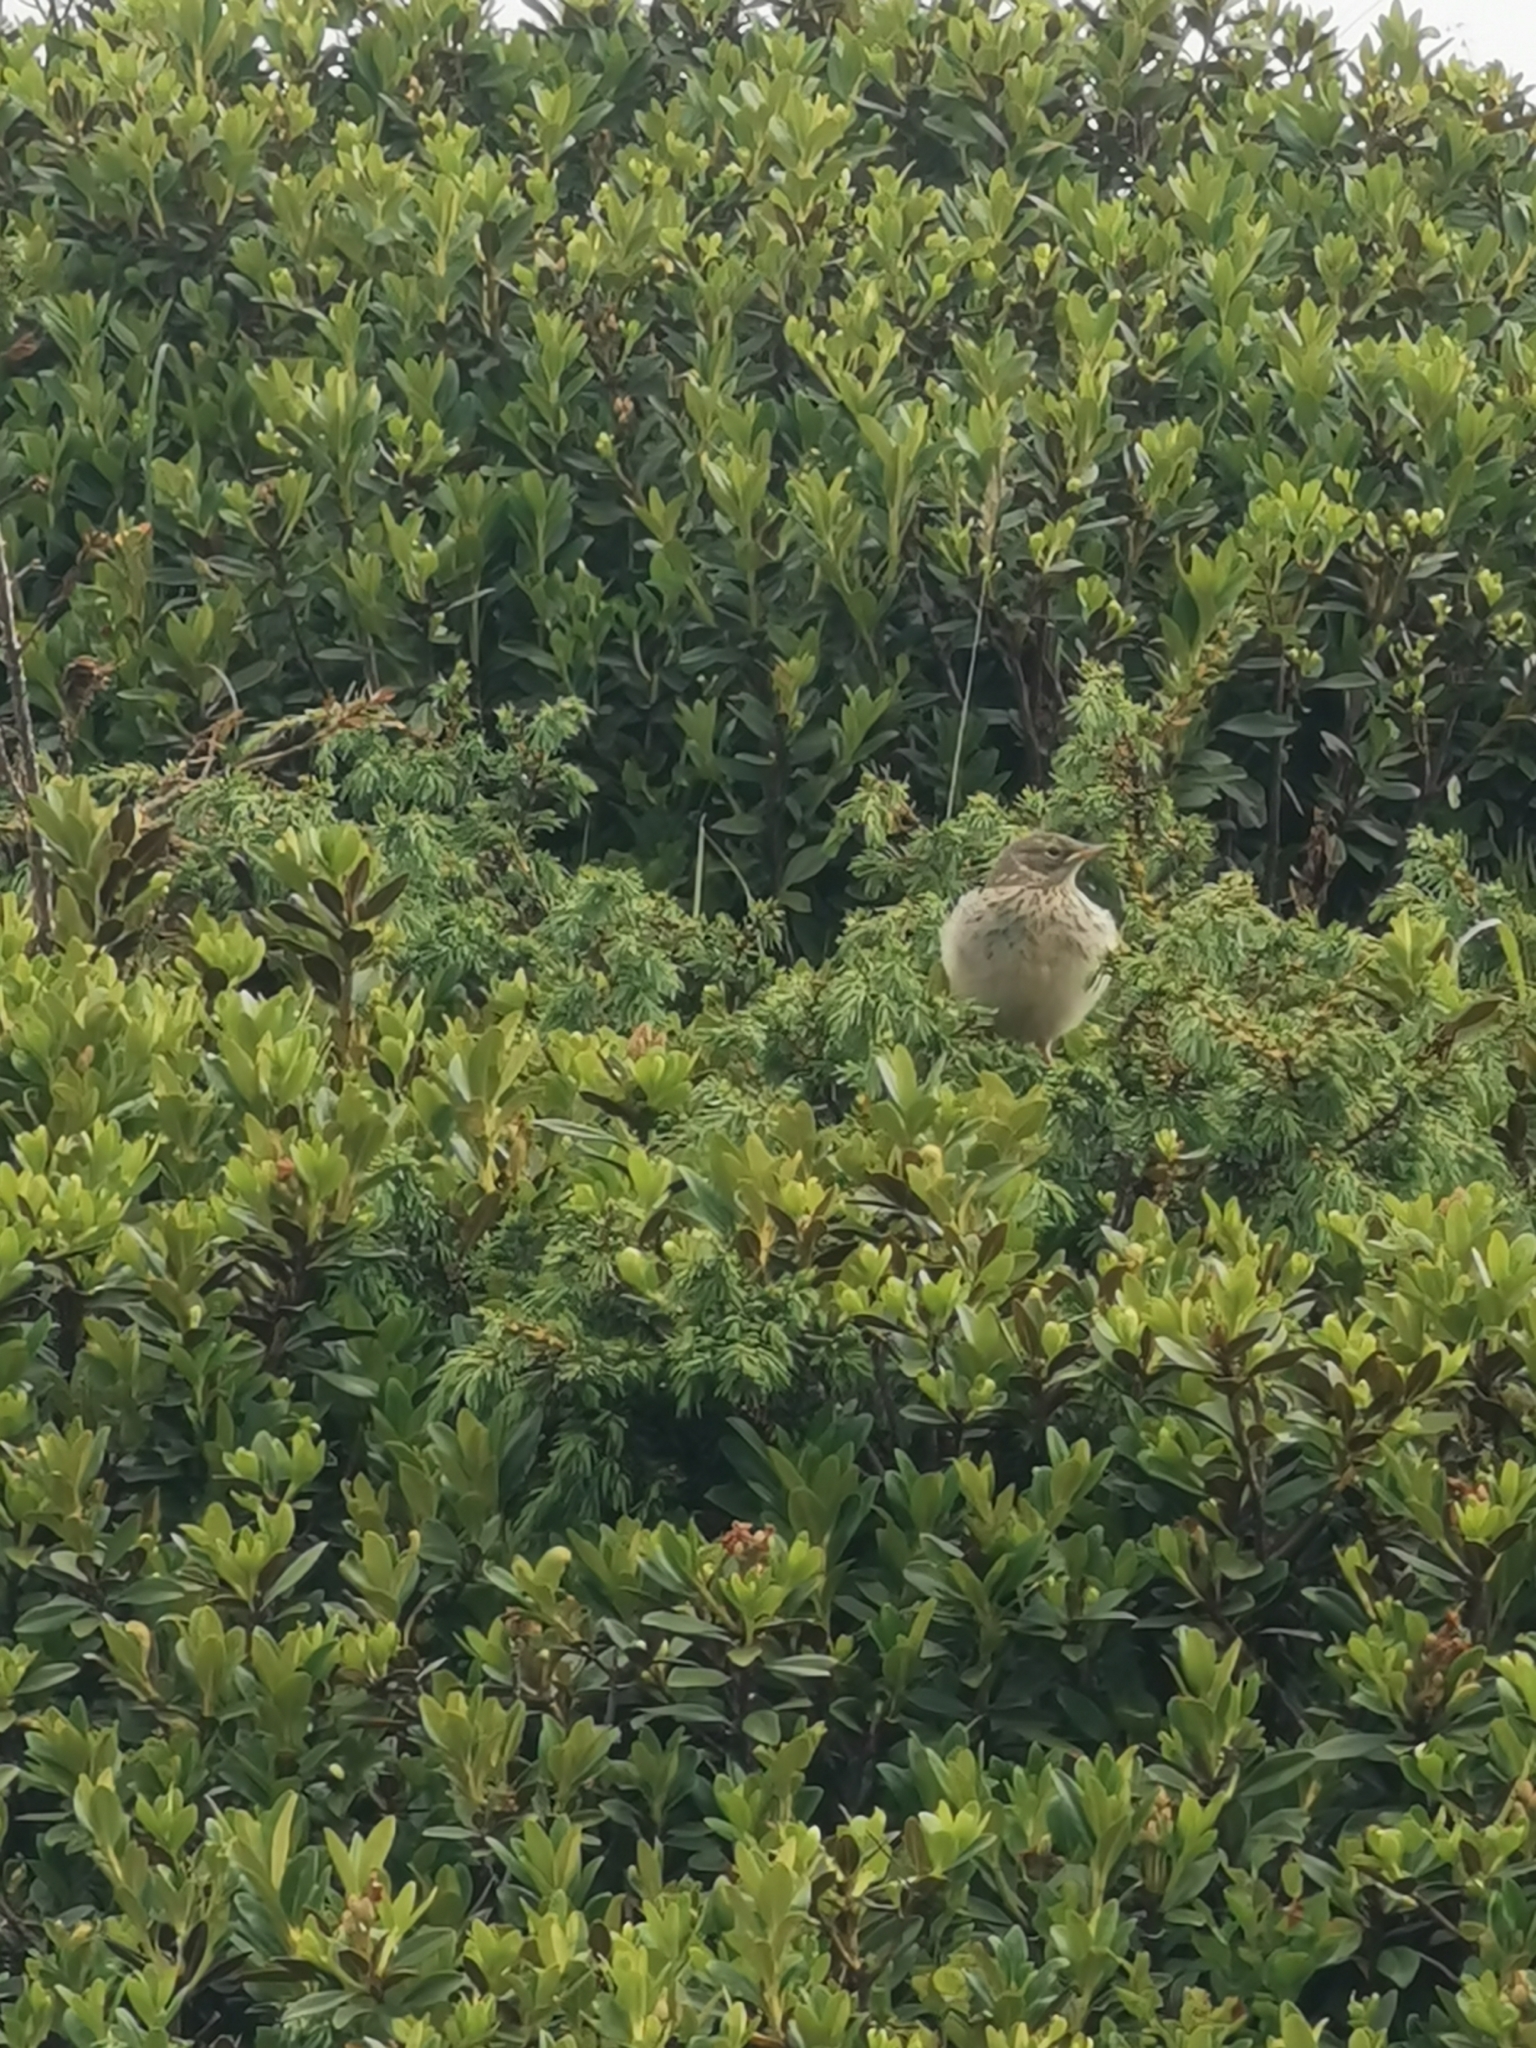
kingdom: Animalia
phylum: Chordata
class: Aves
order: Passeriformes
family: Motacillidae
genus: Anthus
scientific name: Anthus spinoletta
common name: Water pipit
